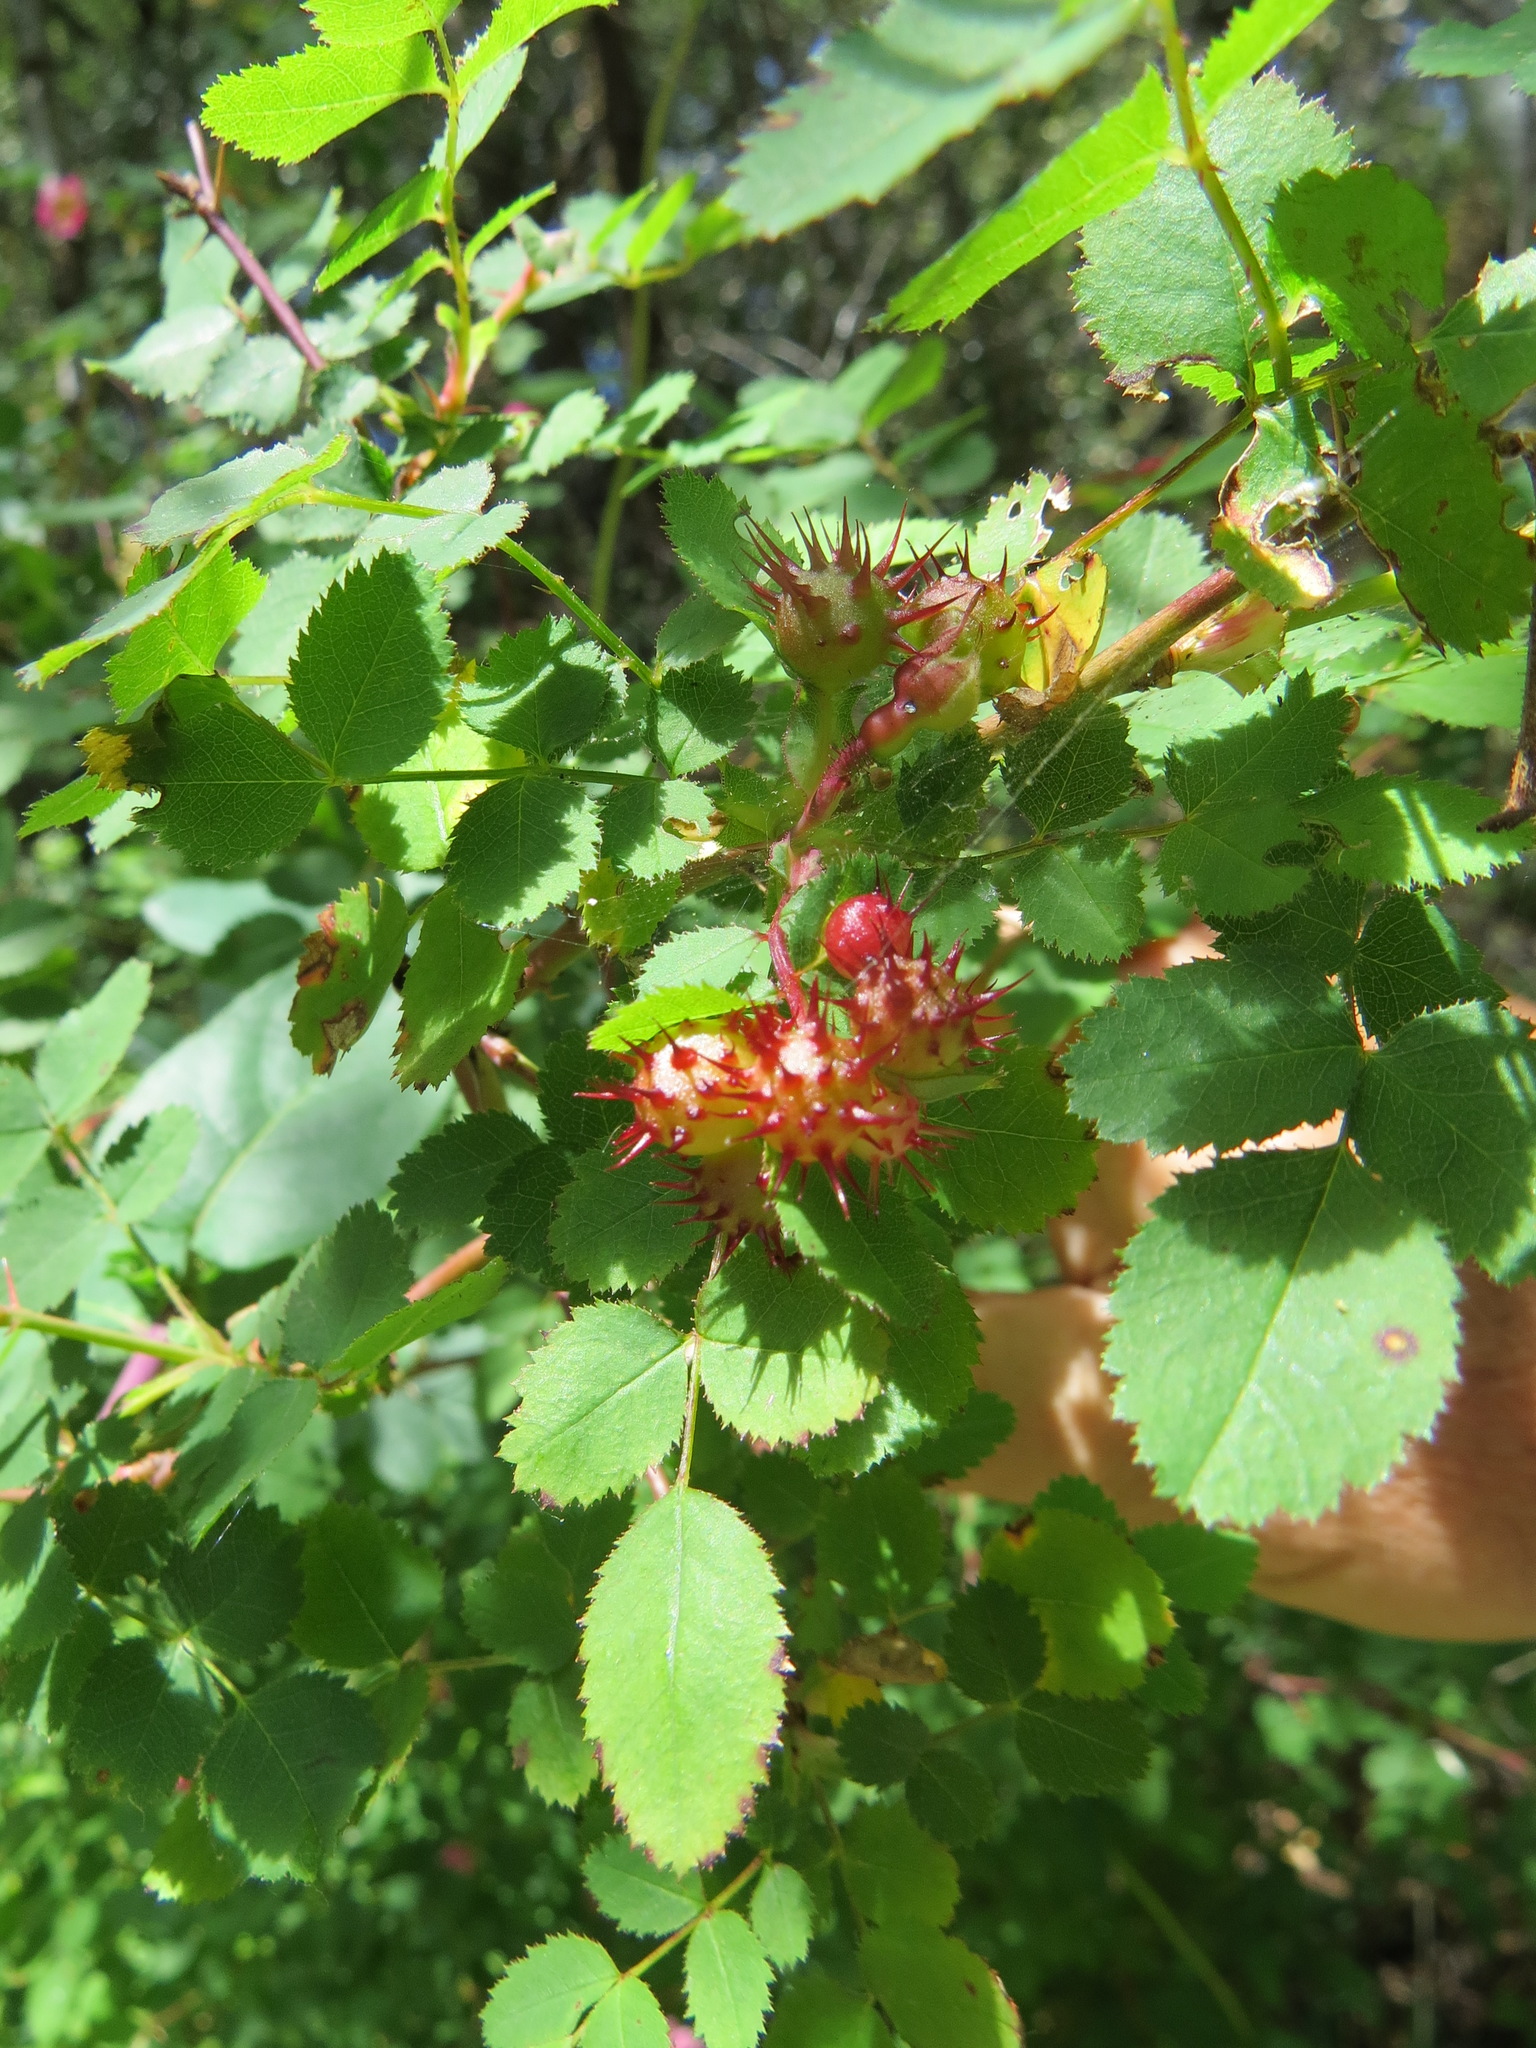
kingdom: Animalia
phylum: Arthropoda
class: Insecta
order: Hymenoptera
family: Cynipidae
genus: Diplolepis
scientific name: Diplolepis polita
